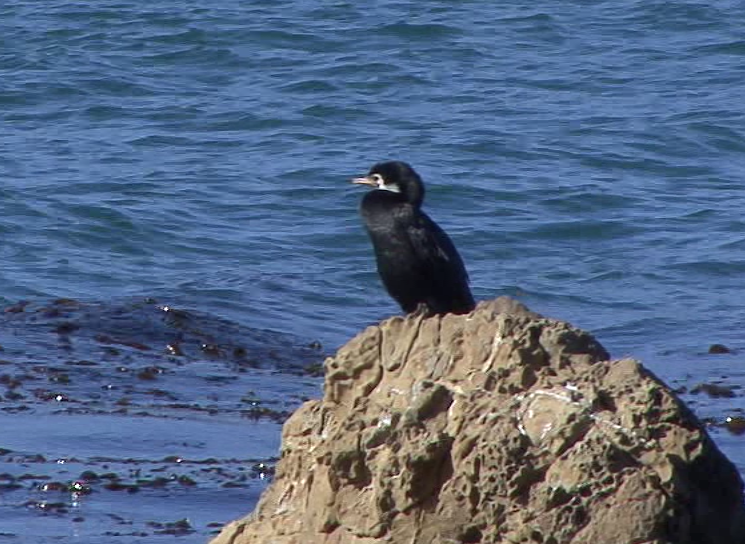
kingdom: Animalia
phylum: Chordata
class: Aves
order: Suliformes
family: Phalacrocoracidae
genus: Microcarbo
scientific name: Microcarbo melanoleucos
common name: Little pied cormorant
